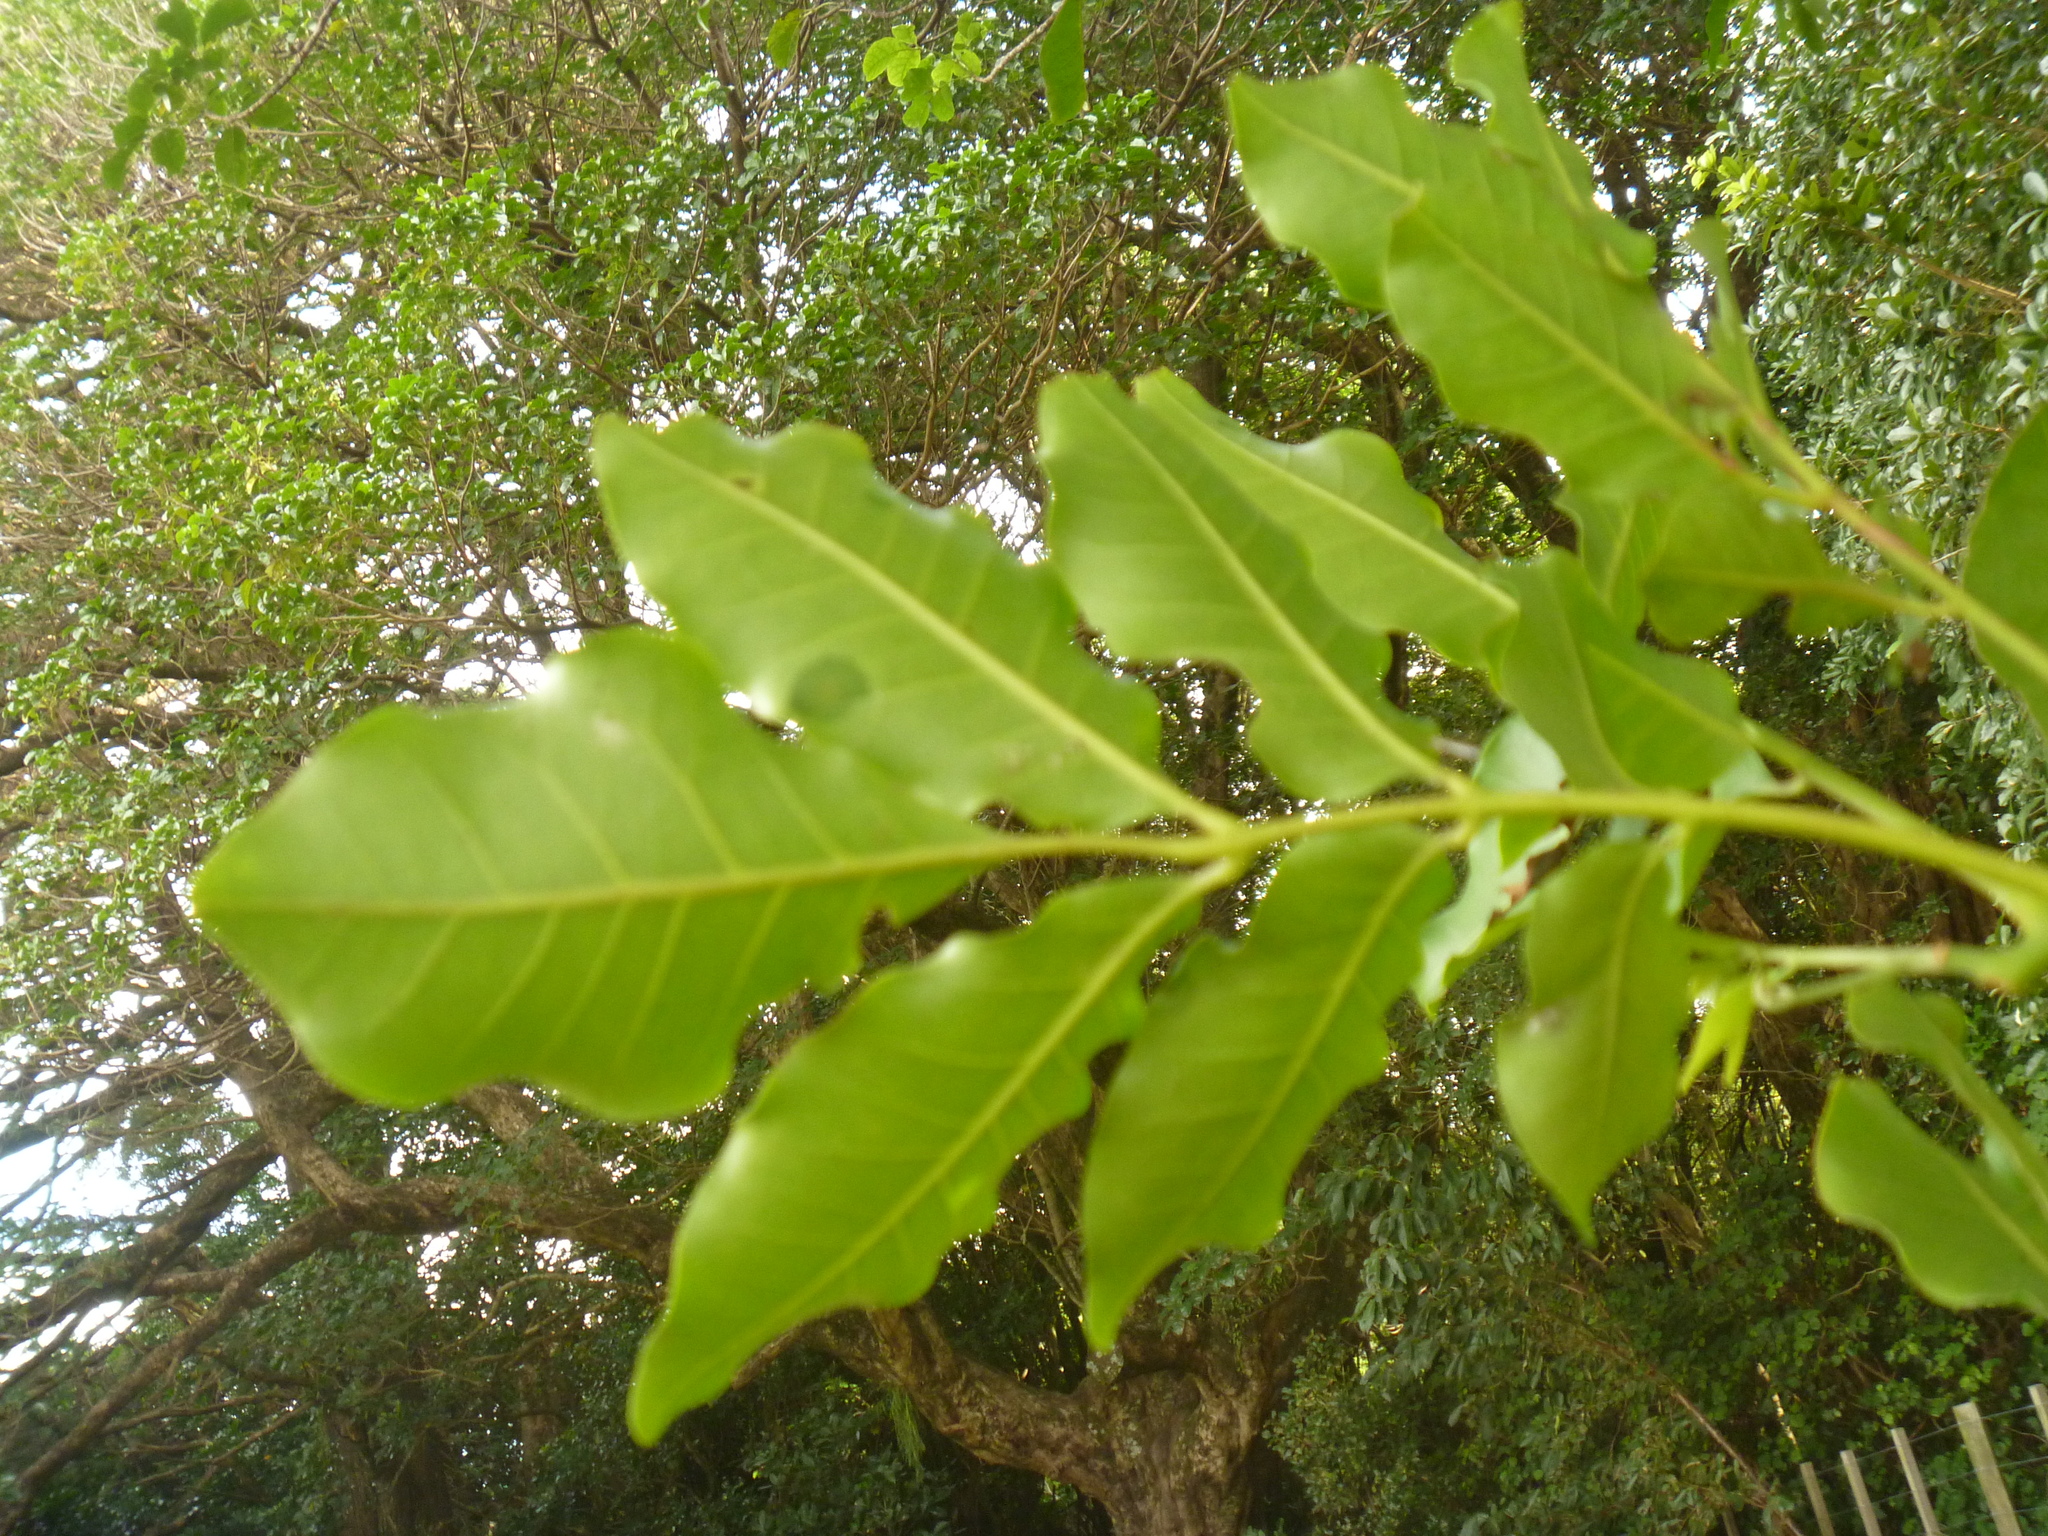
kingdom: Plantae
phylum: Tracheophyta
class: Magnoliopsida
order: Sapindales
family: Meliaceae
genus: Didymocheton
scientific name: Didymocheton spectabilis
